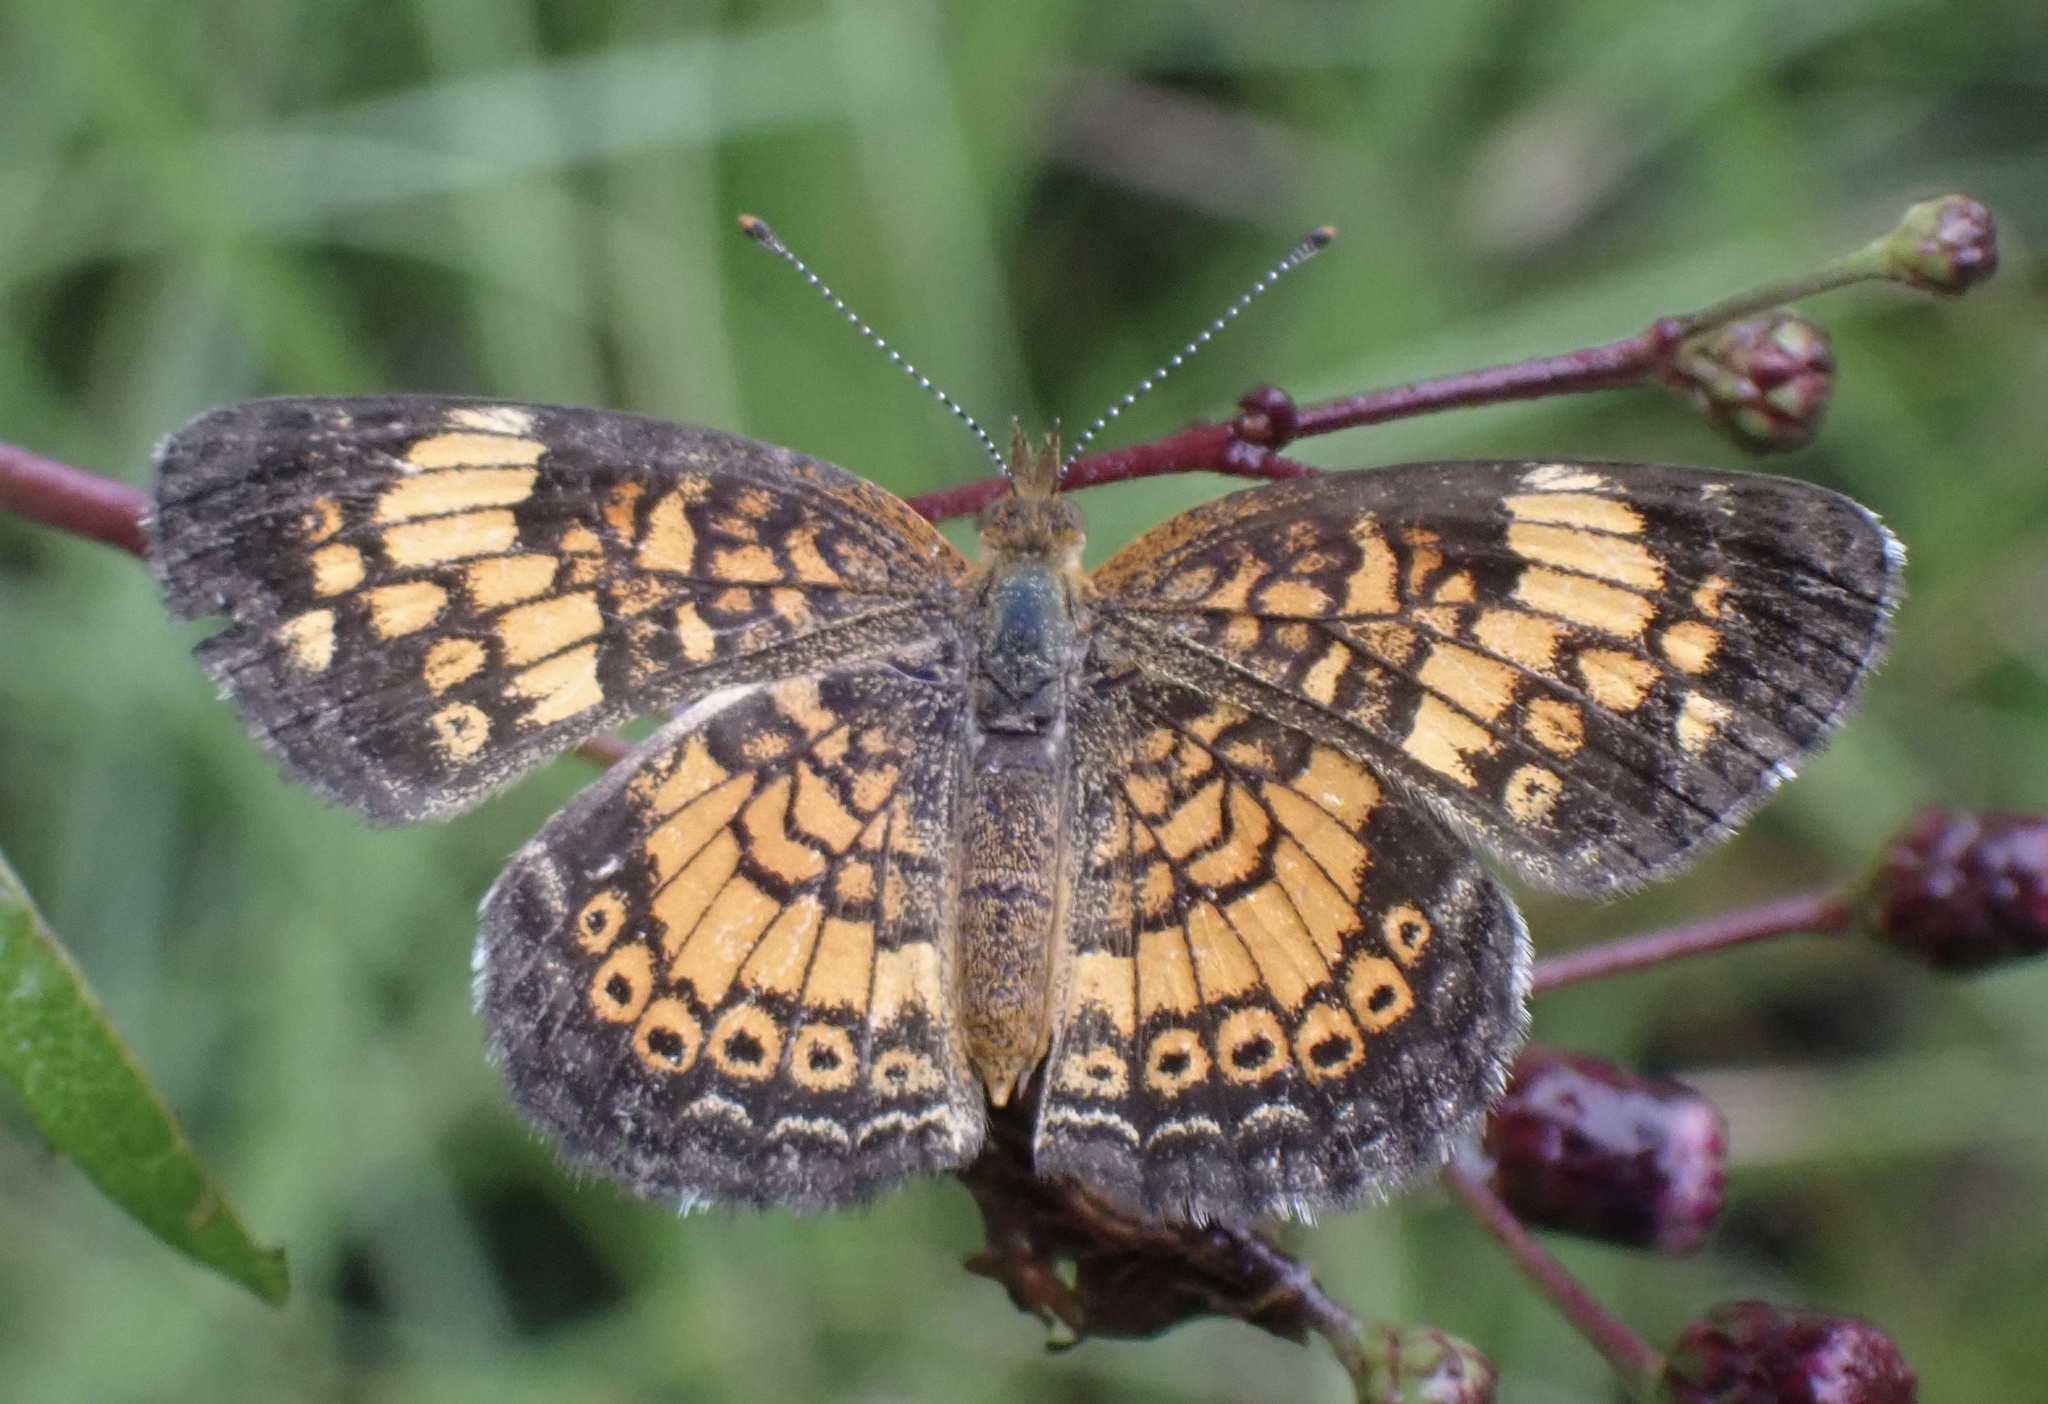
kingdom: Animalia
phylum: Arthropoda
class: Insecta
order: Lepidoptera
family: Nymphalidae
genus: Phyciodes
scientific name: Phyciodes tharos
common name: Pearl crescent
